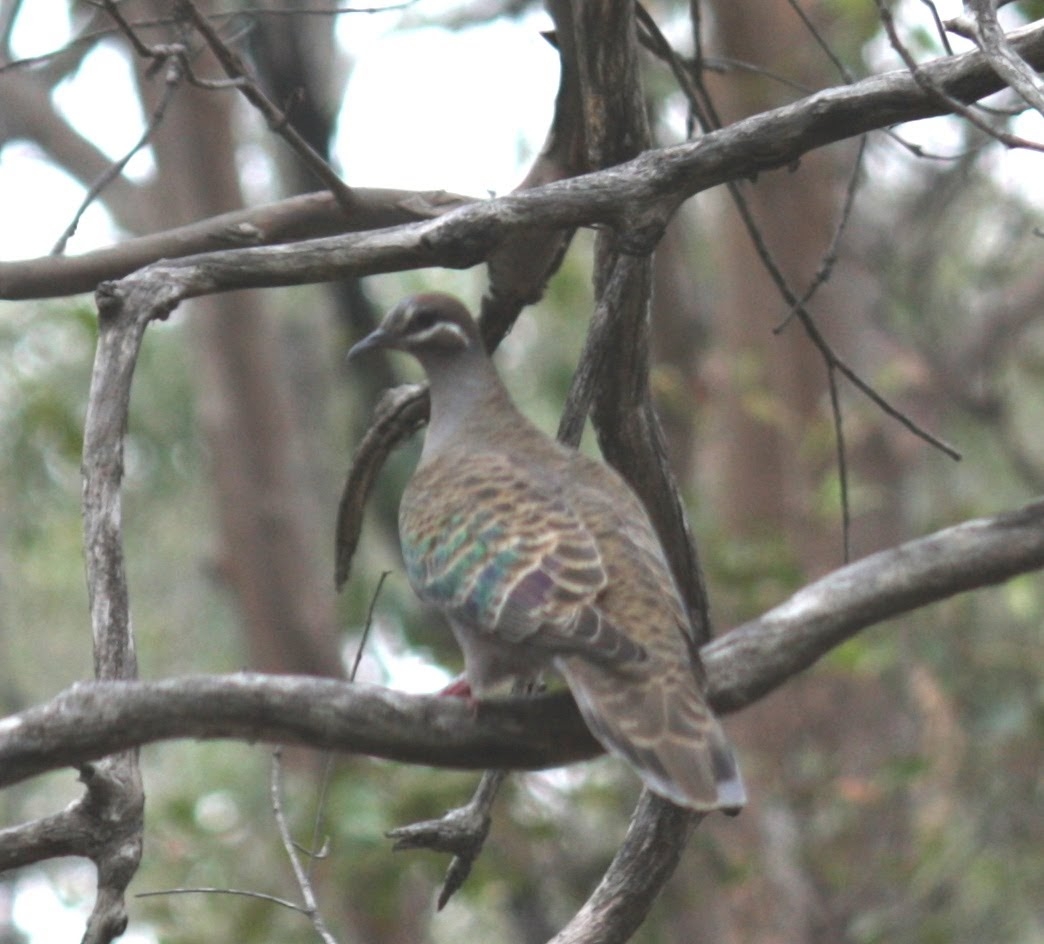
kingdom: Animalia
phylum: Chordata
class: Aves
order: Columbiformes
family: Columbidae
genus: Phaps
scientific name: Phaps chalcoptera
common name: Common bronzewing
